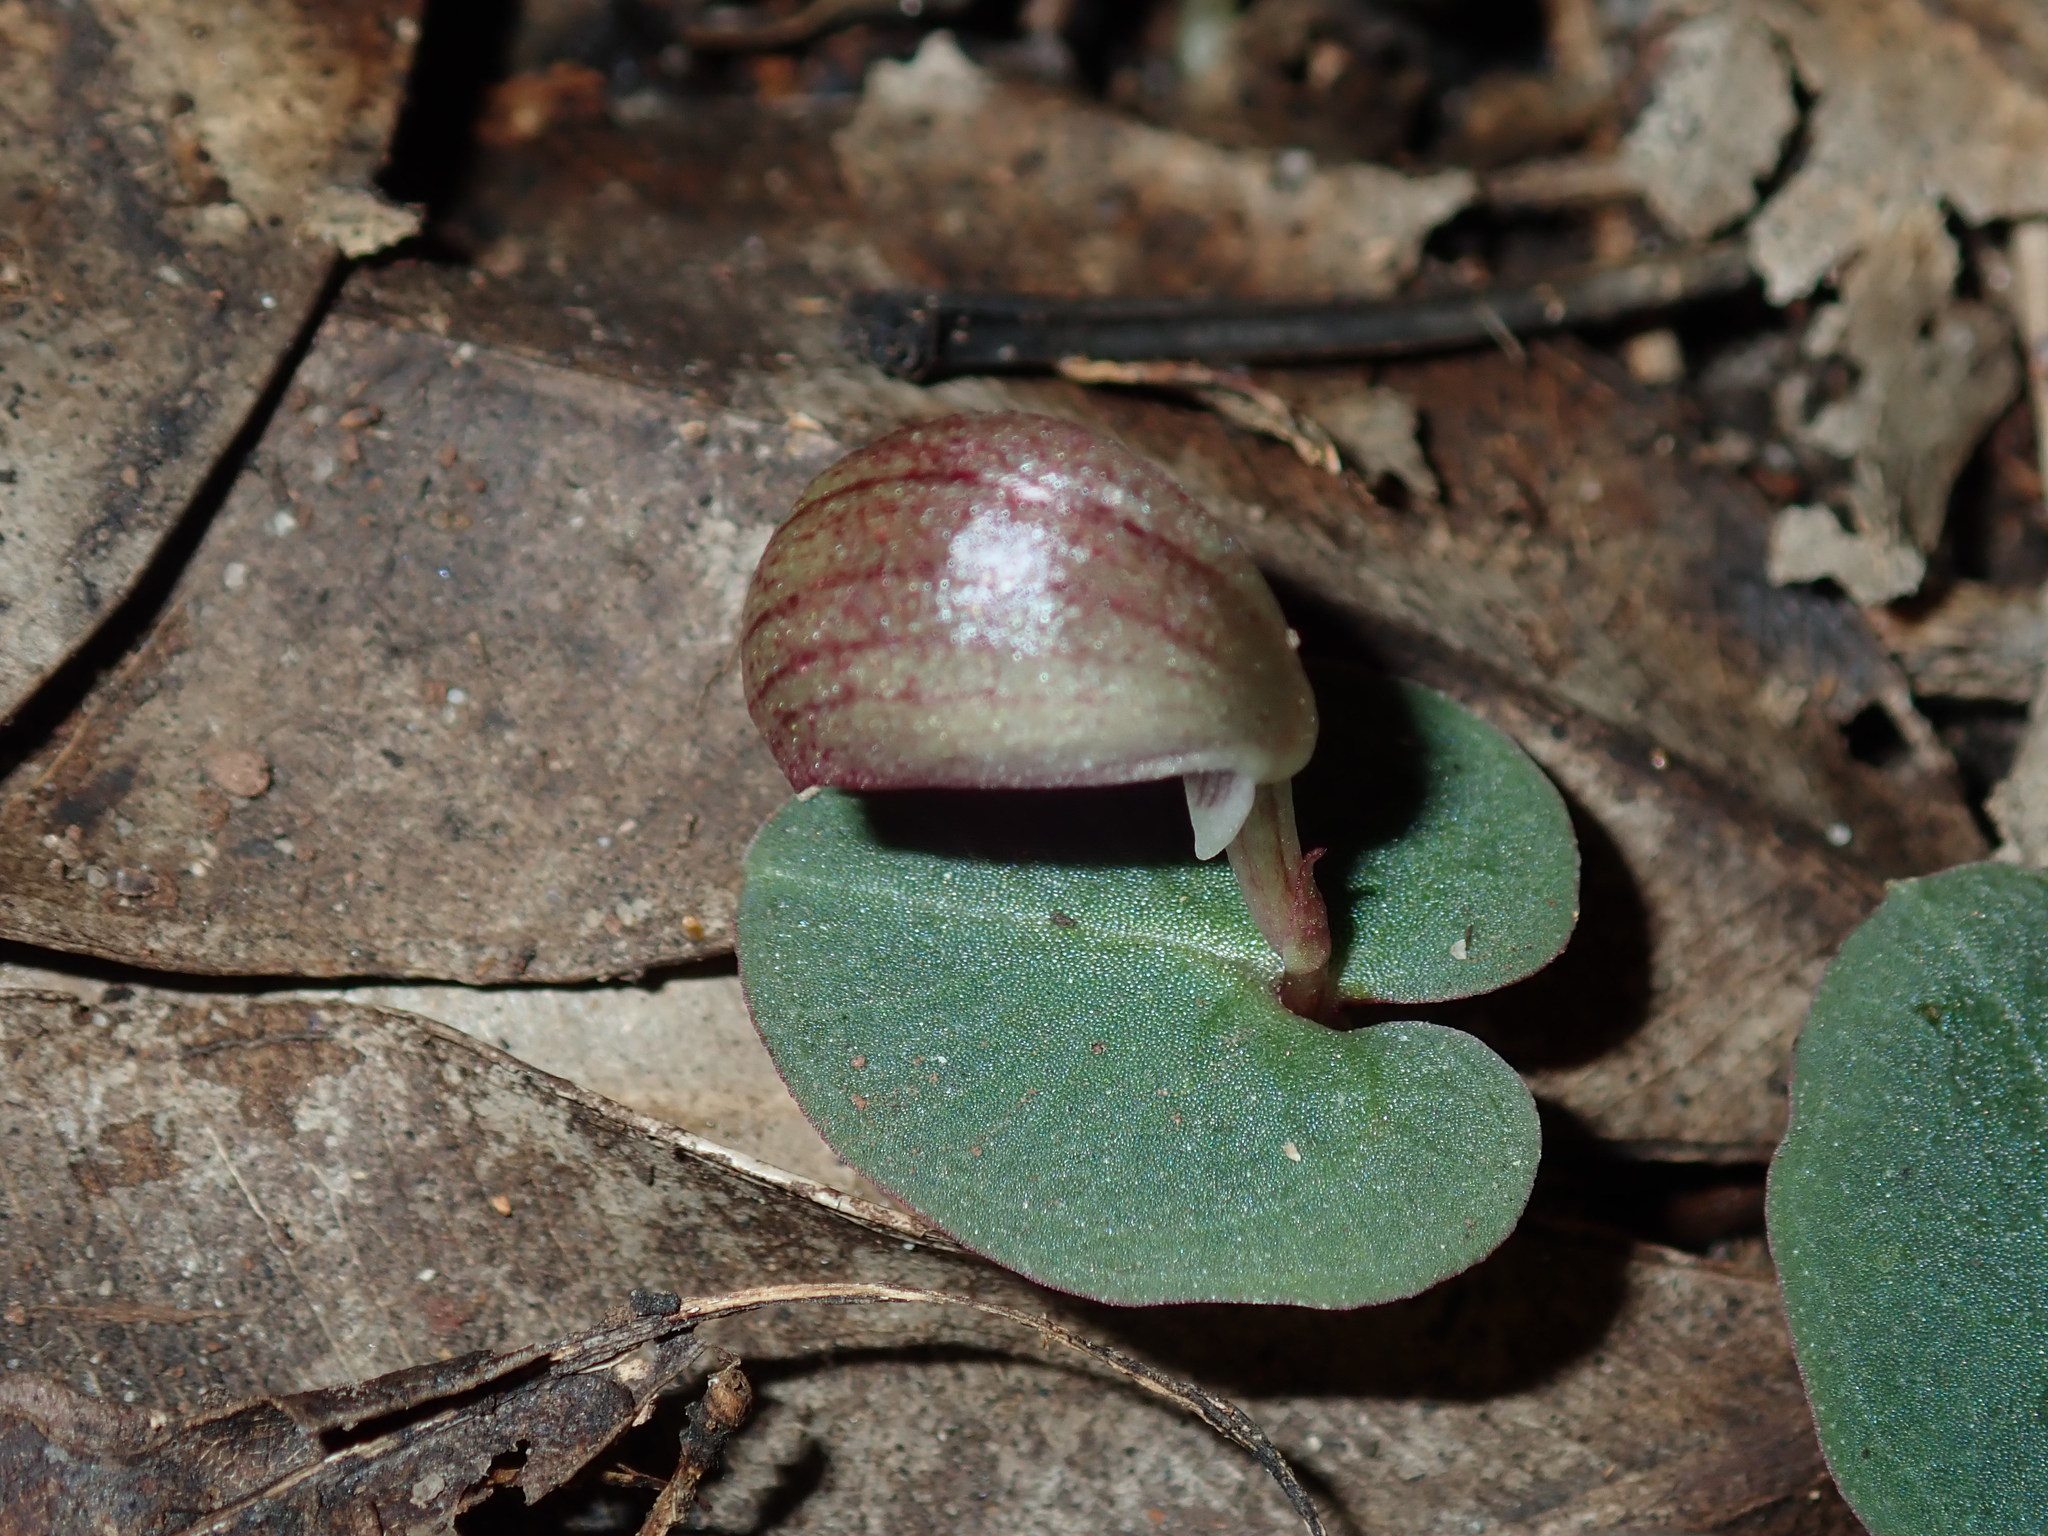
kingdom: Plantae
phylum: Tracheophyta
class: Liliopsida
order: Asparagales
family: Orchidaceae
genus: Corybas
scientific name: Corybas aconitiflorus
